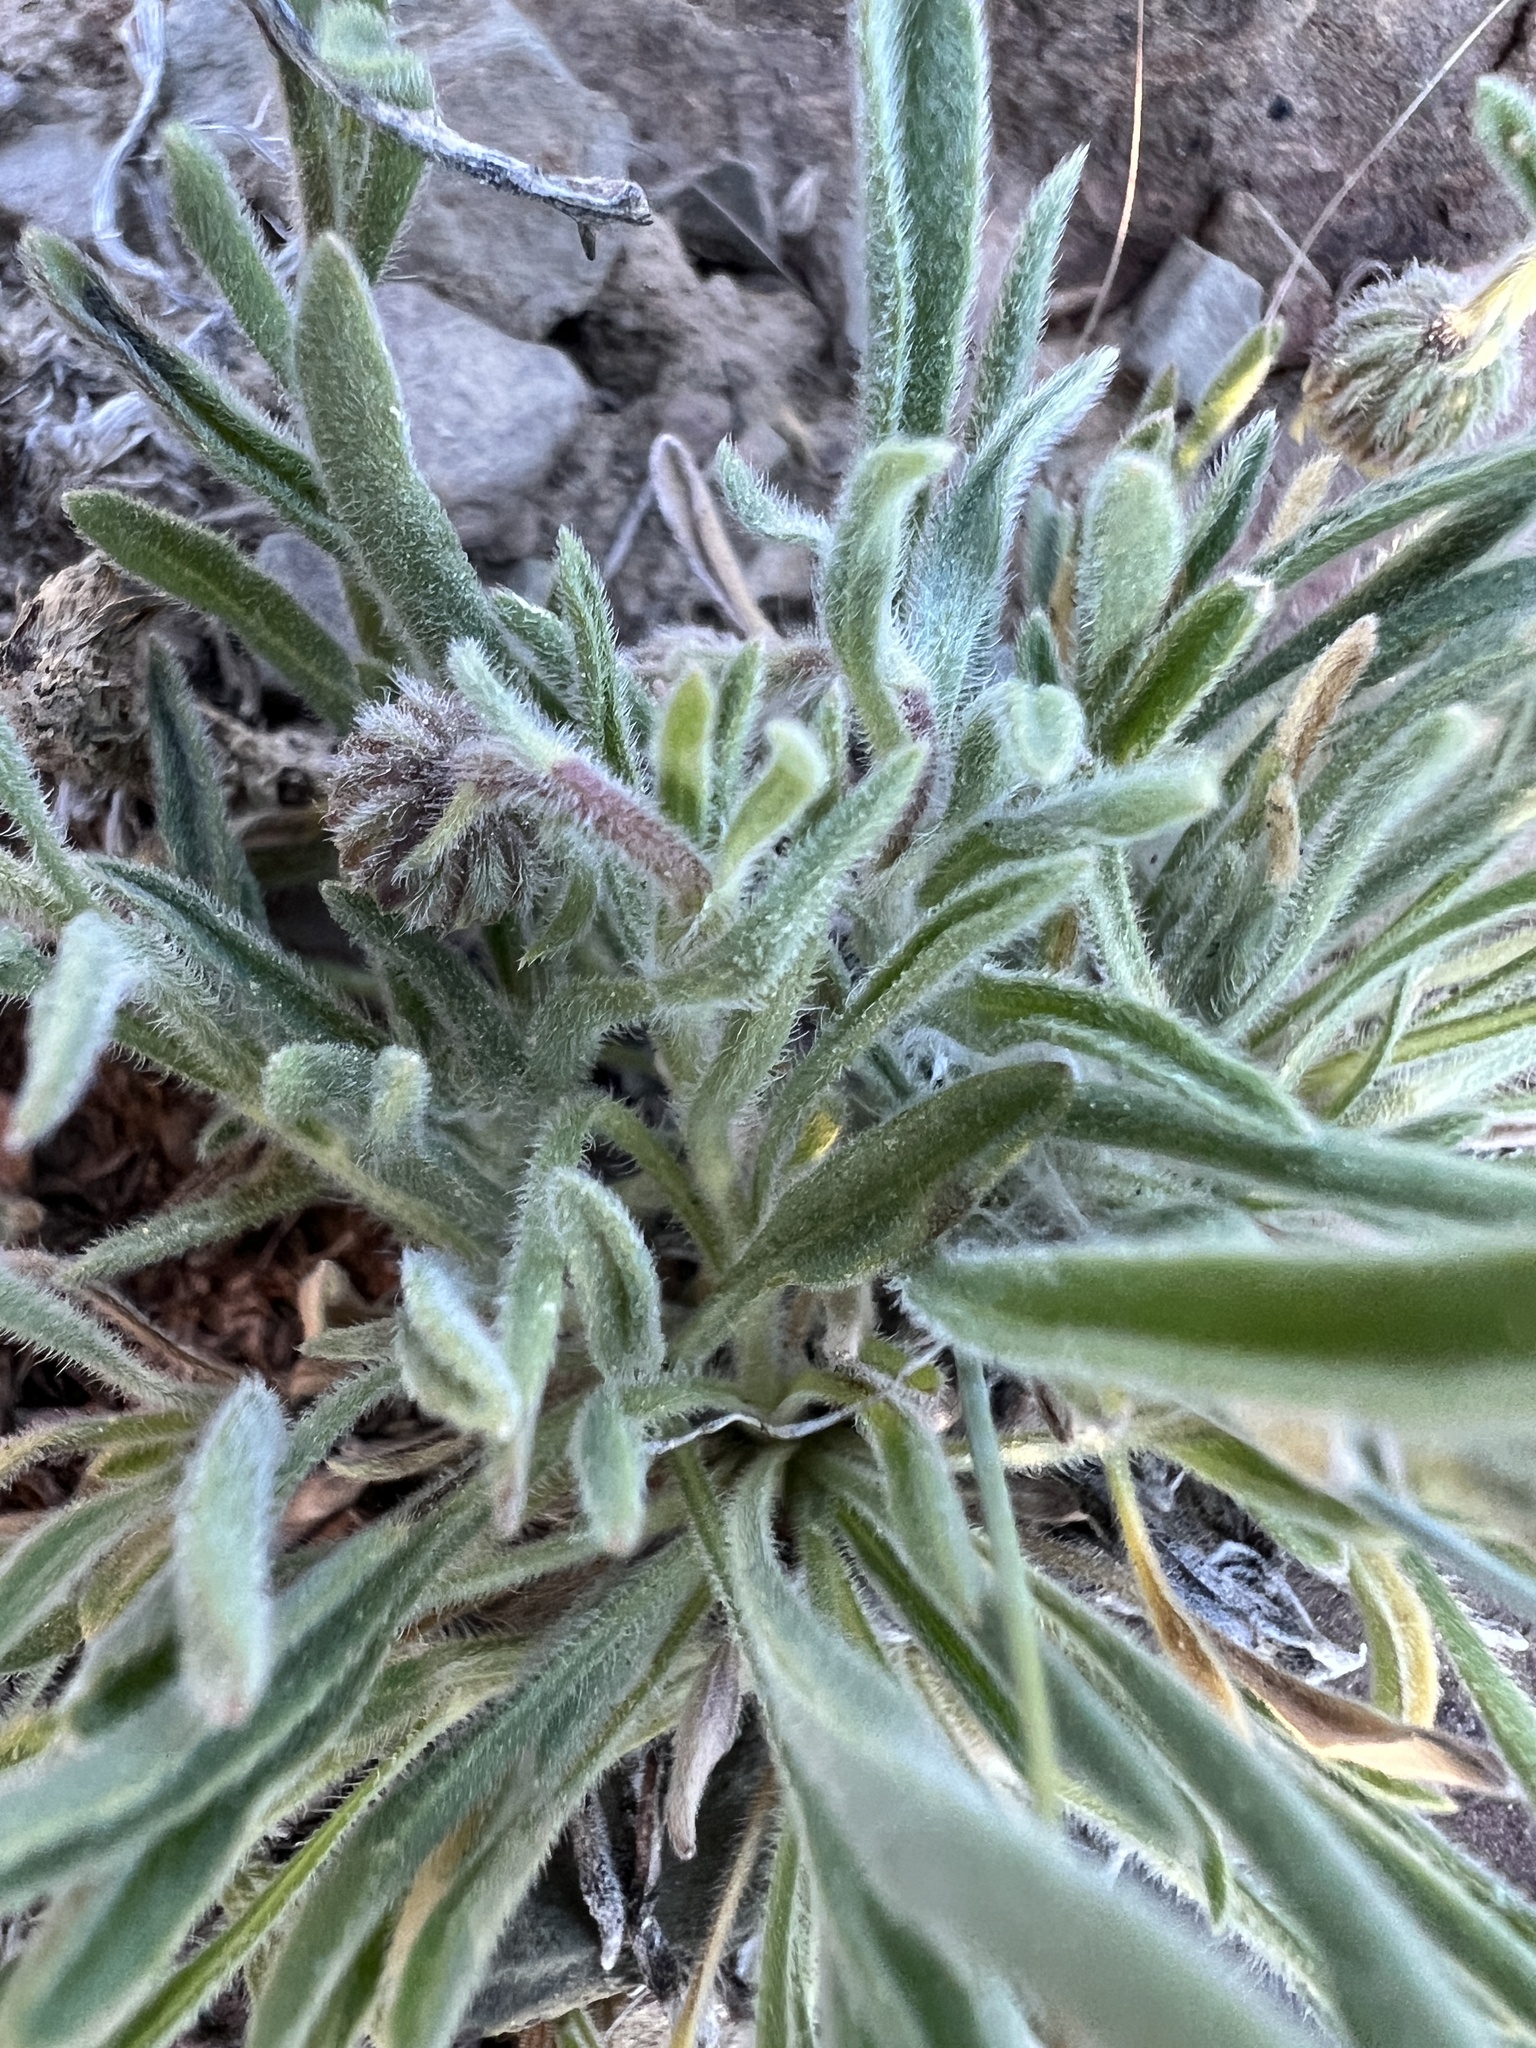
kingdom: Plantae
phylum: Tracheophyta
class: Magnoliopsida
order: Asterales
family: Asteraceae
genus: Erigeron
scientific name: Erigeron clokeyi
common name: Clokey's fleabane
